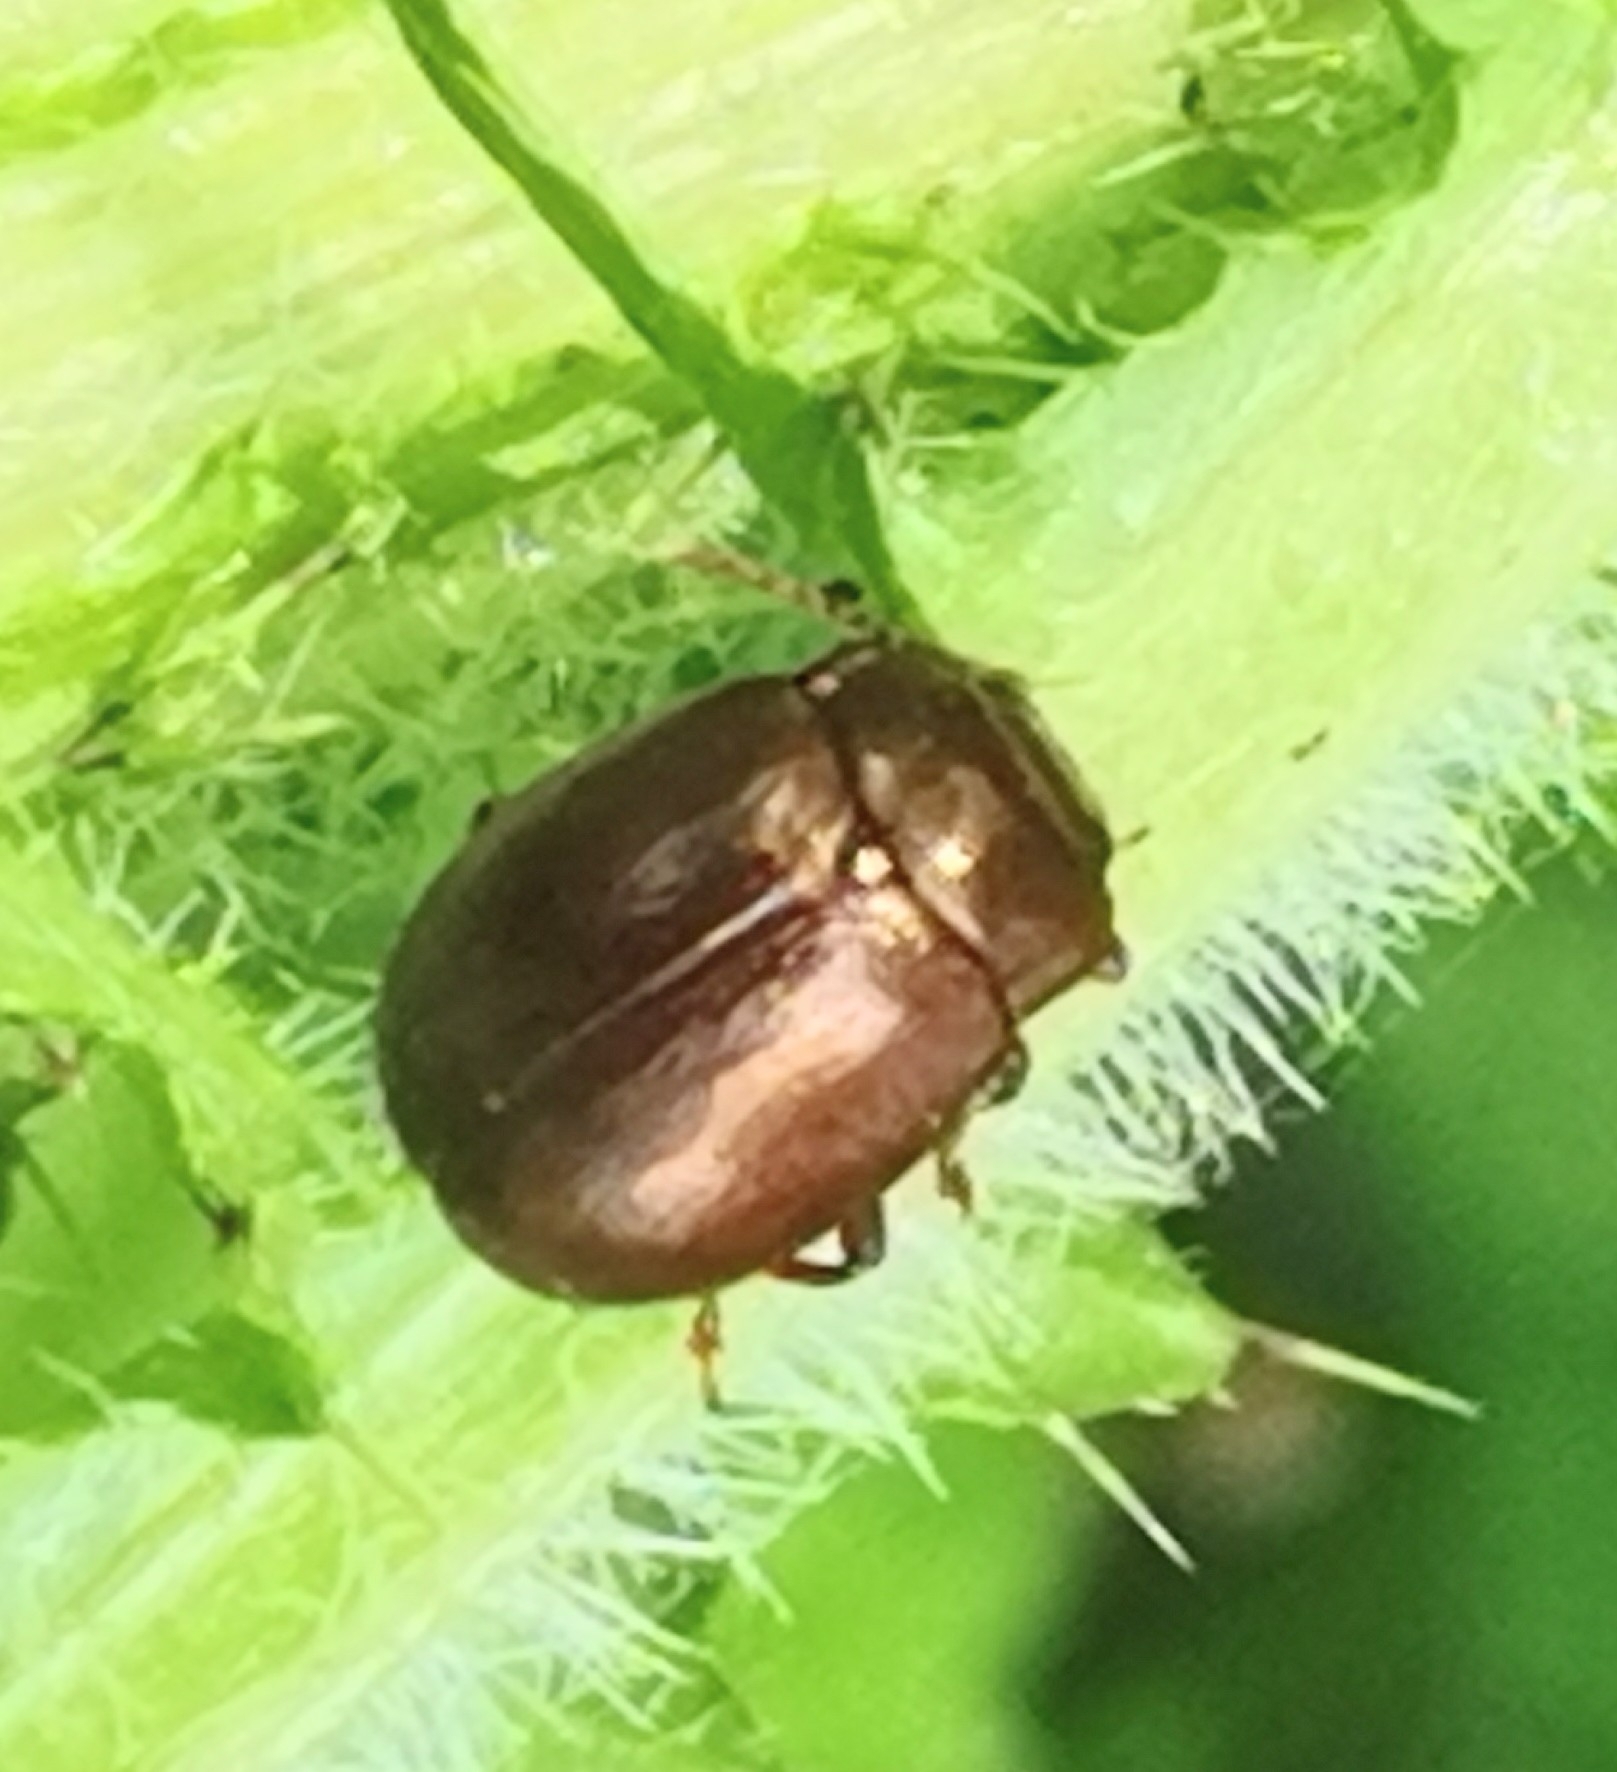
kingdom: Animalia
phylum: Arthropoda
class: Insecta
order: Coleoptera
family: Chrysomelidae
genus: Chrysolina
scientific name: Chrysolina staphylaea
